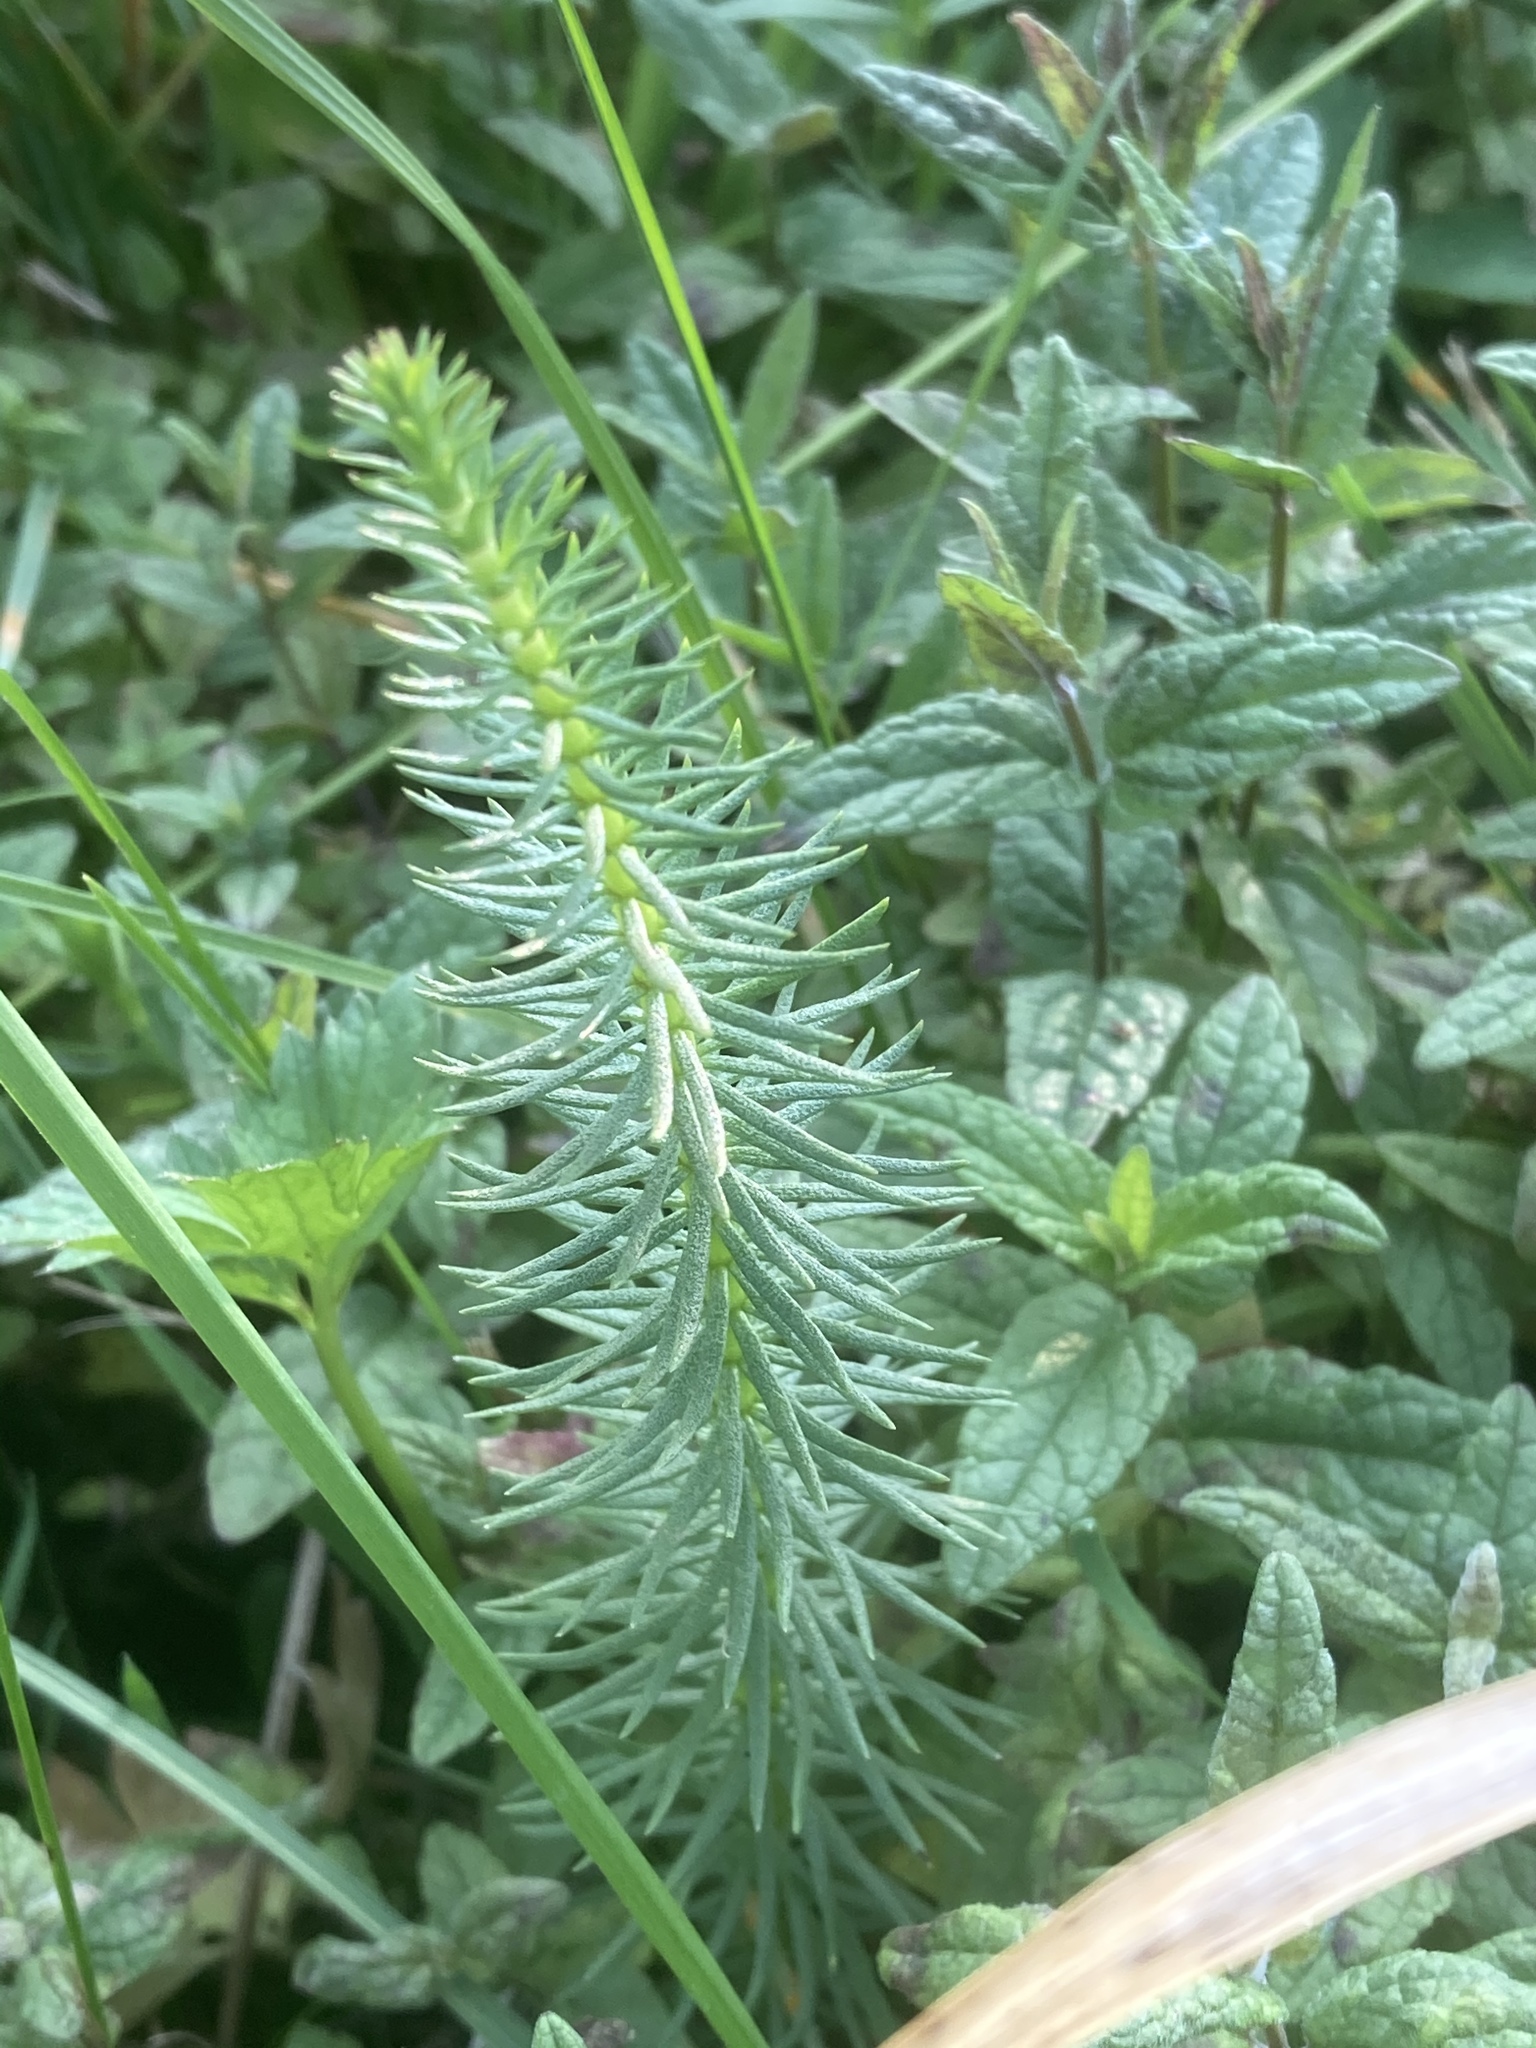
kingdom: Plantae
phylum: Tracheophyta
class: Magnoliopsida
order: Lamiales
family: Plantaginaceae
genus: Hippuris
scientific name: Hippuris vulgaris
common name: Mare's-tail
